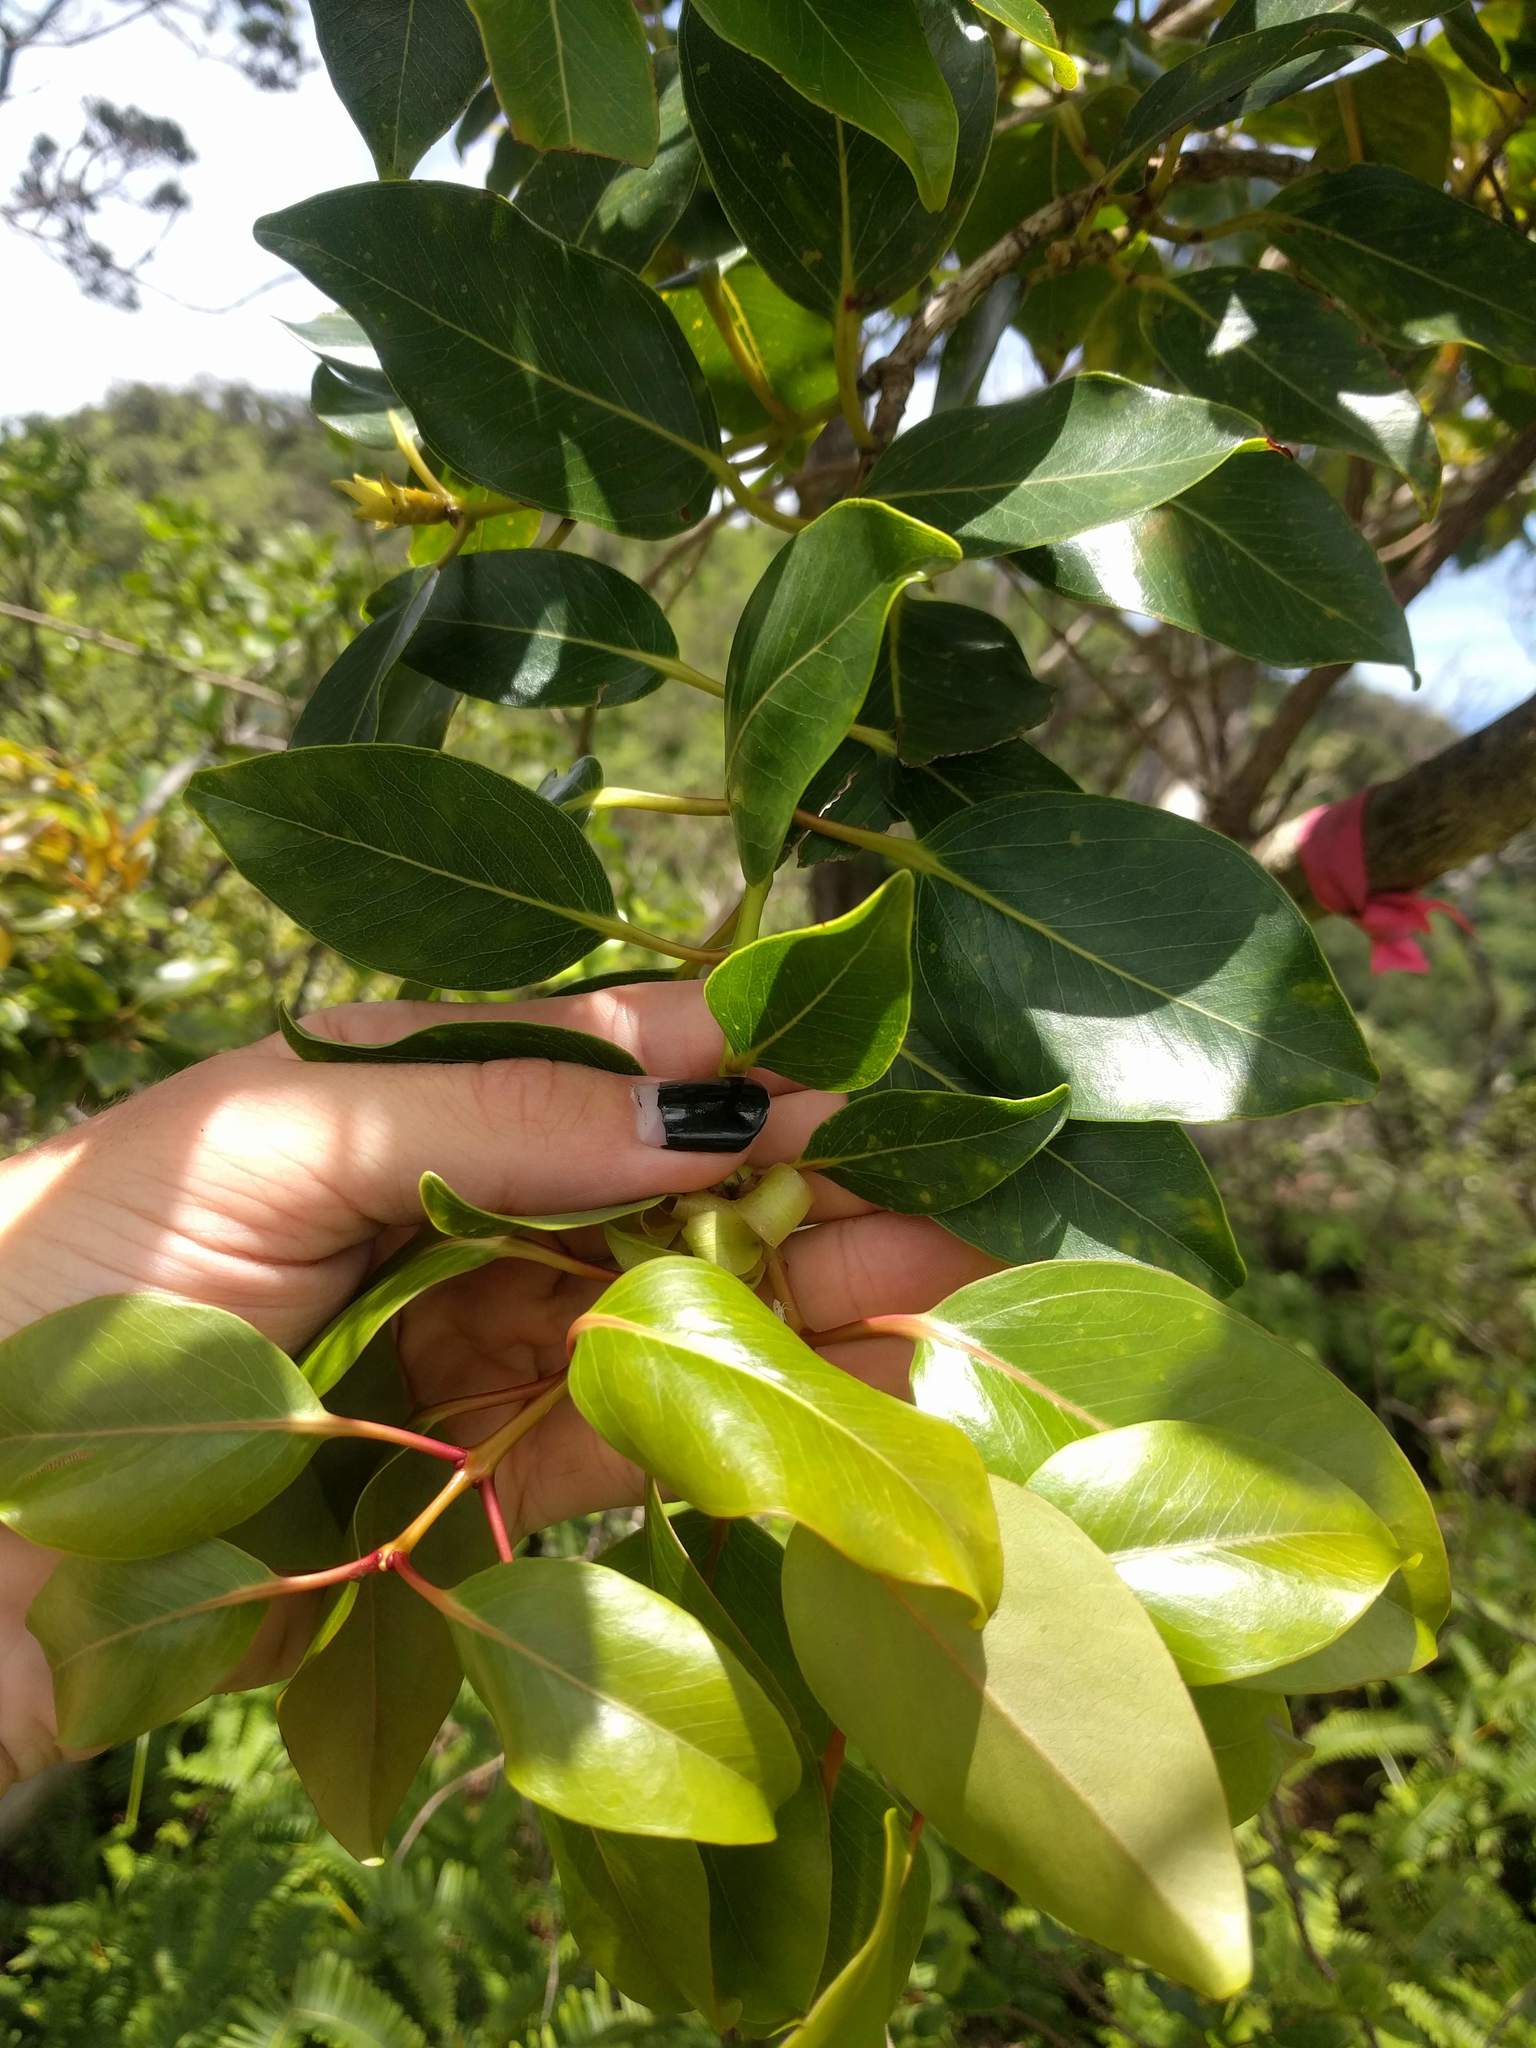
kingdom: Plantae
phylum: Tracheophyta
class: Magnoliopsida
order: Myrtales
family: Myrtaceae
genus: Metrosideros
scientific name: Metrosideros macropus
